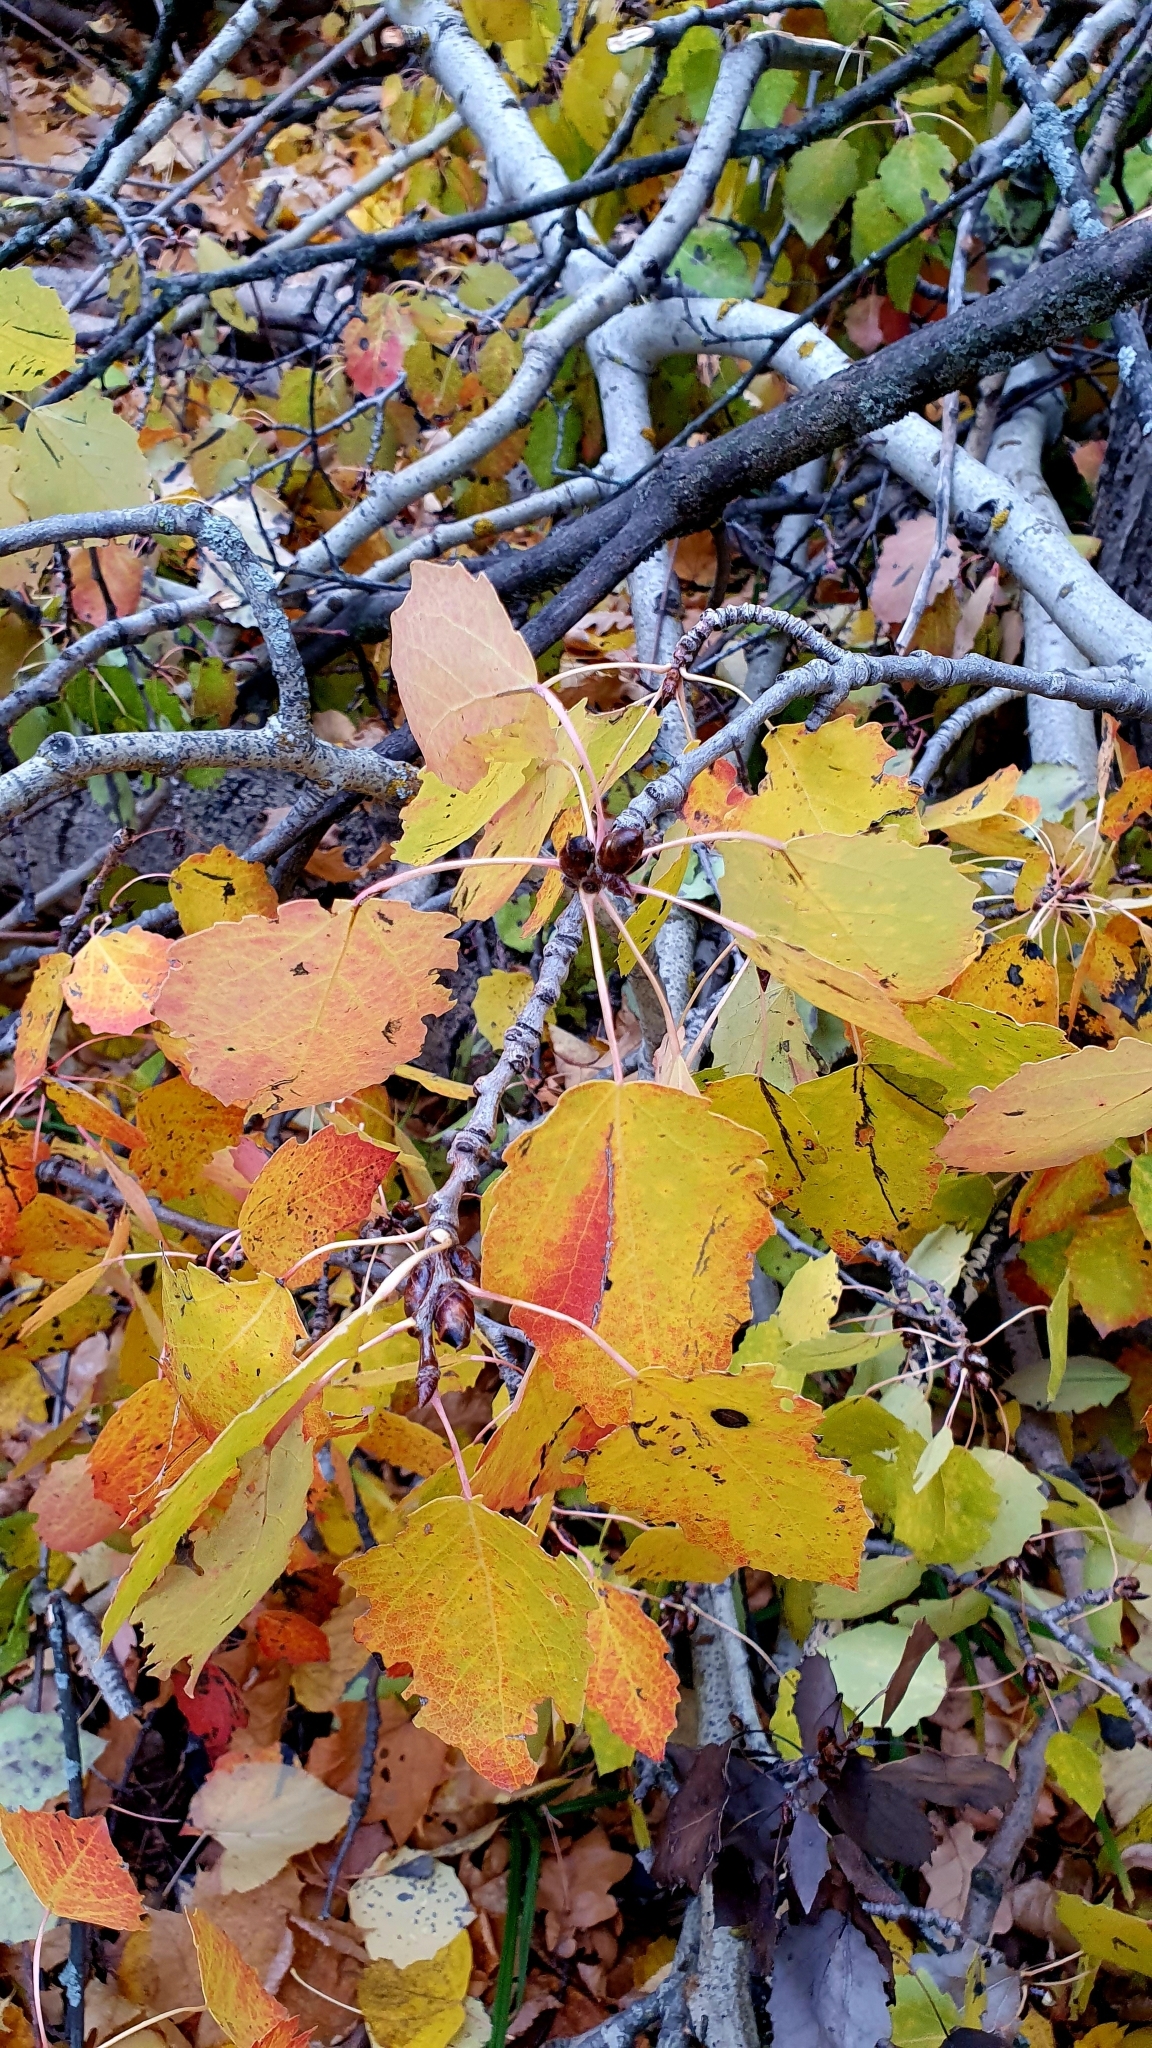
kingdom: Plantae
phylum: Tracheophyta
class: Magnoliopsida
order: Malpighiales
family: Salicaceae
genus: Populus
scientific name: Populus tremula
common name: European aspen
